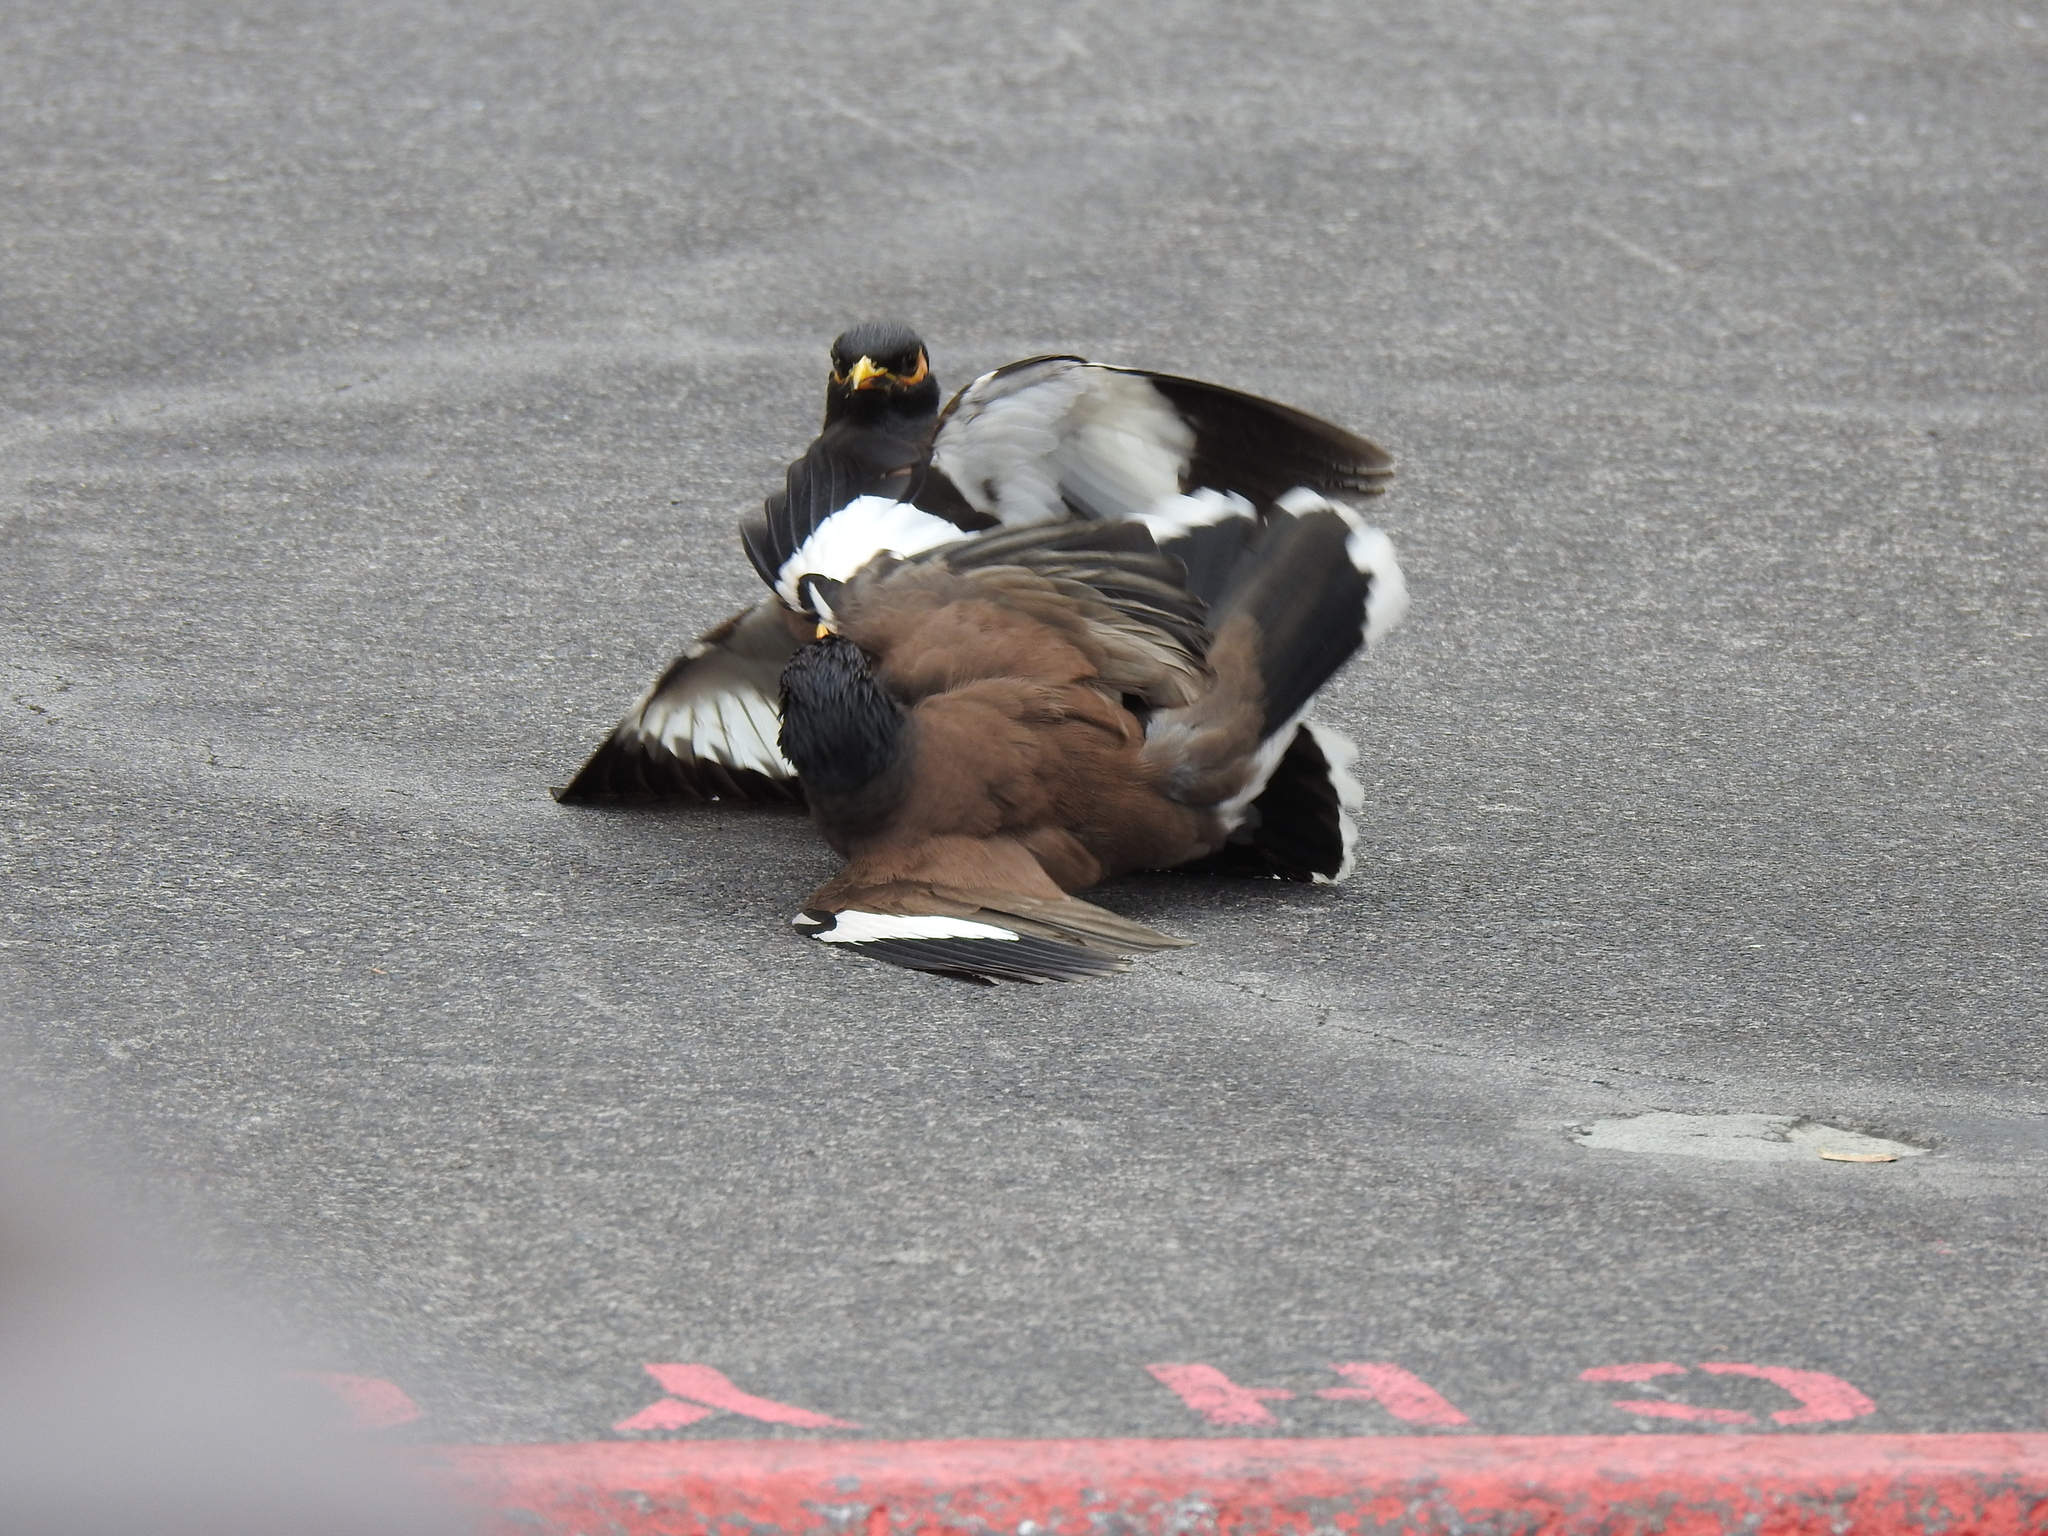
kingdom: Animalia
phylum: Chordata
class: Aves
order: Passeriformes
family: Sturnidae
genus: Acridotheres
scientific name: Acridotheres tristis
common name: Common myna
